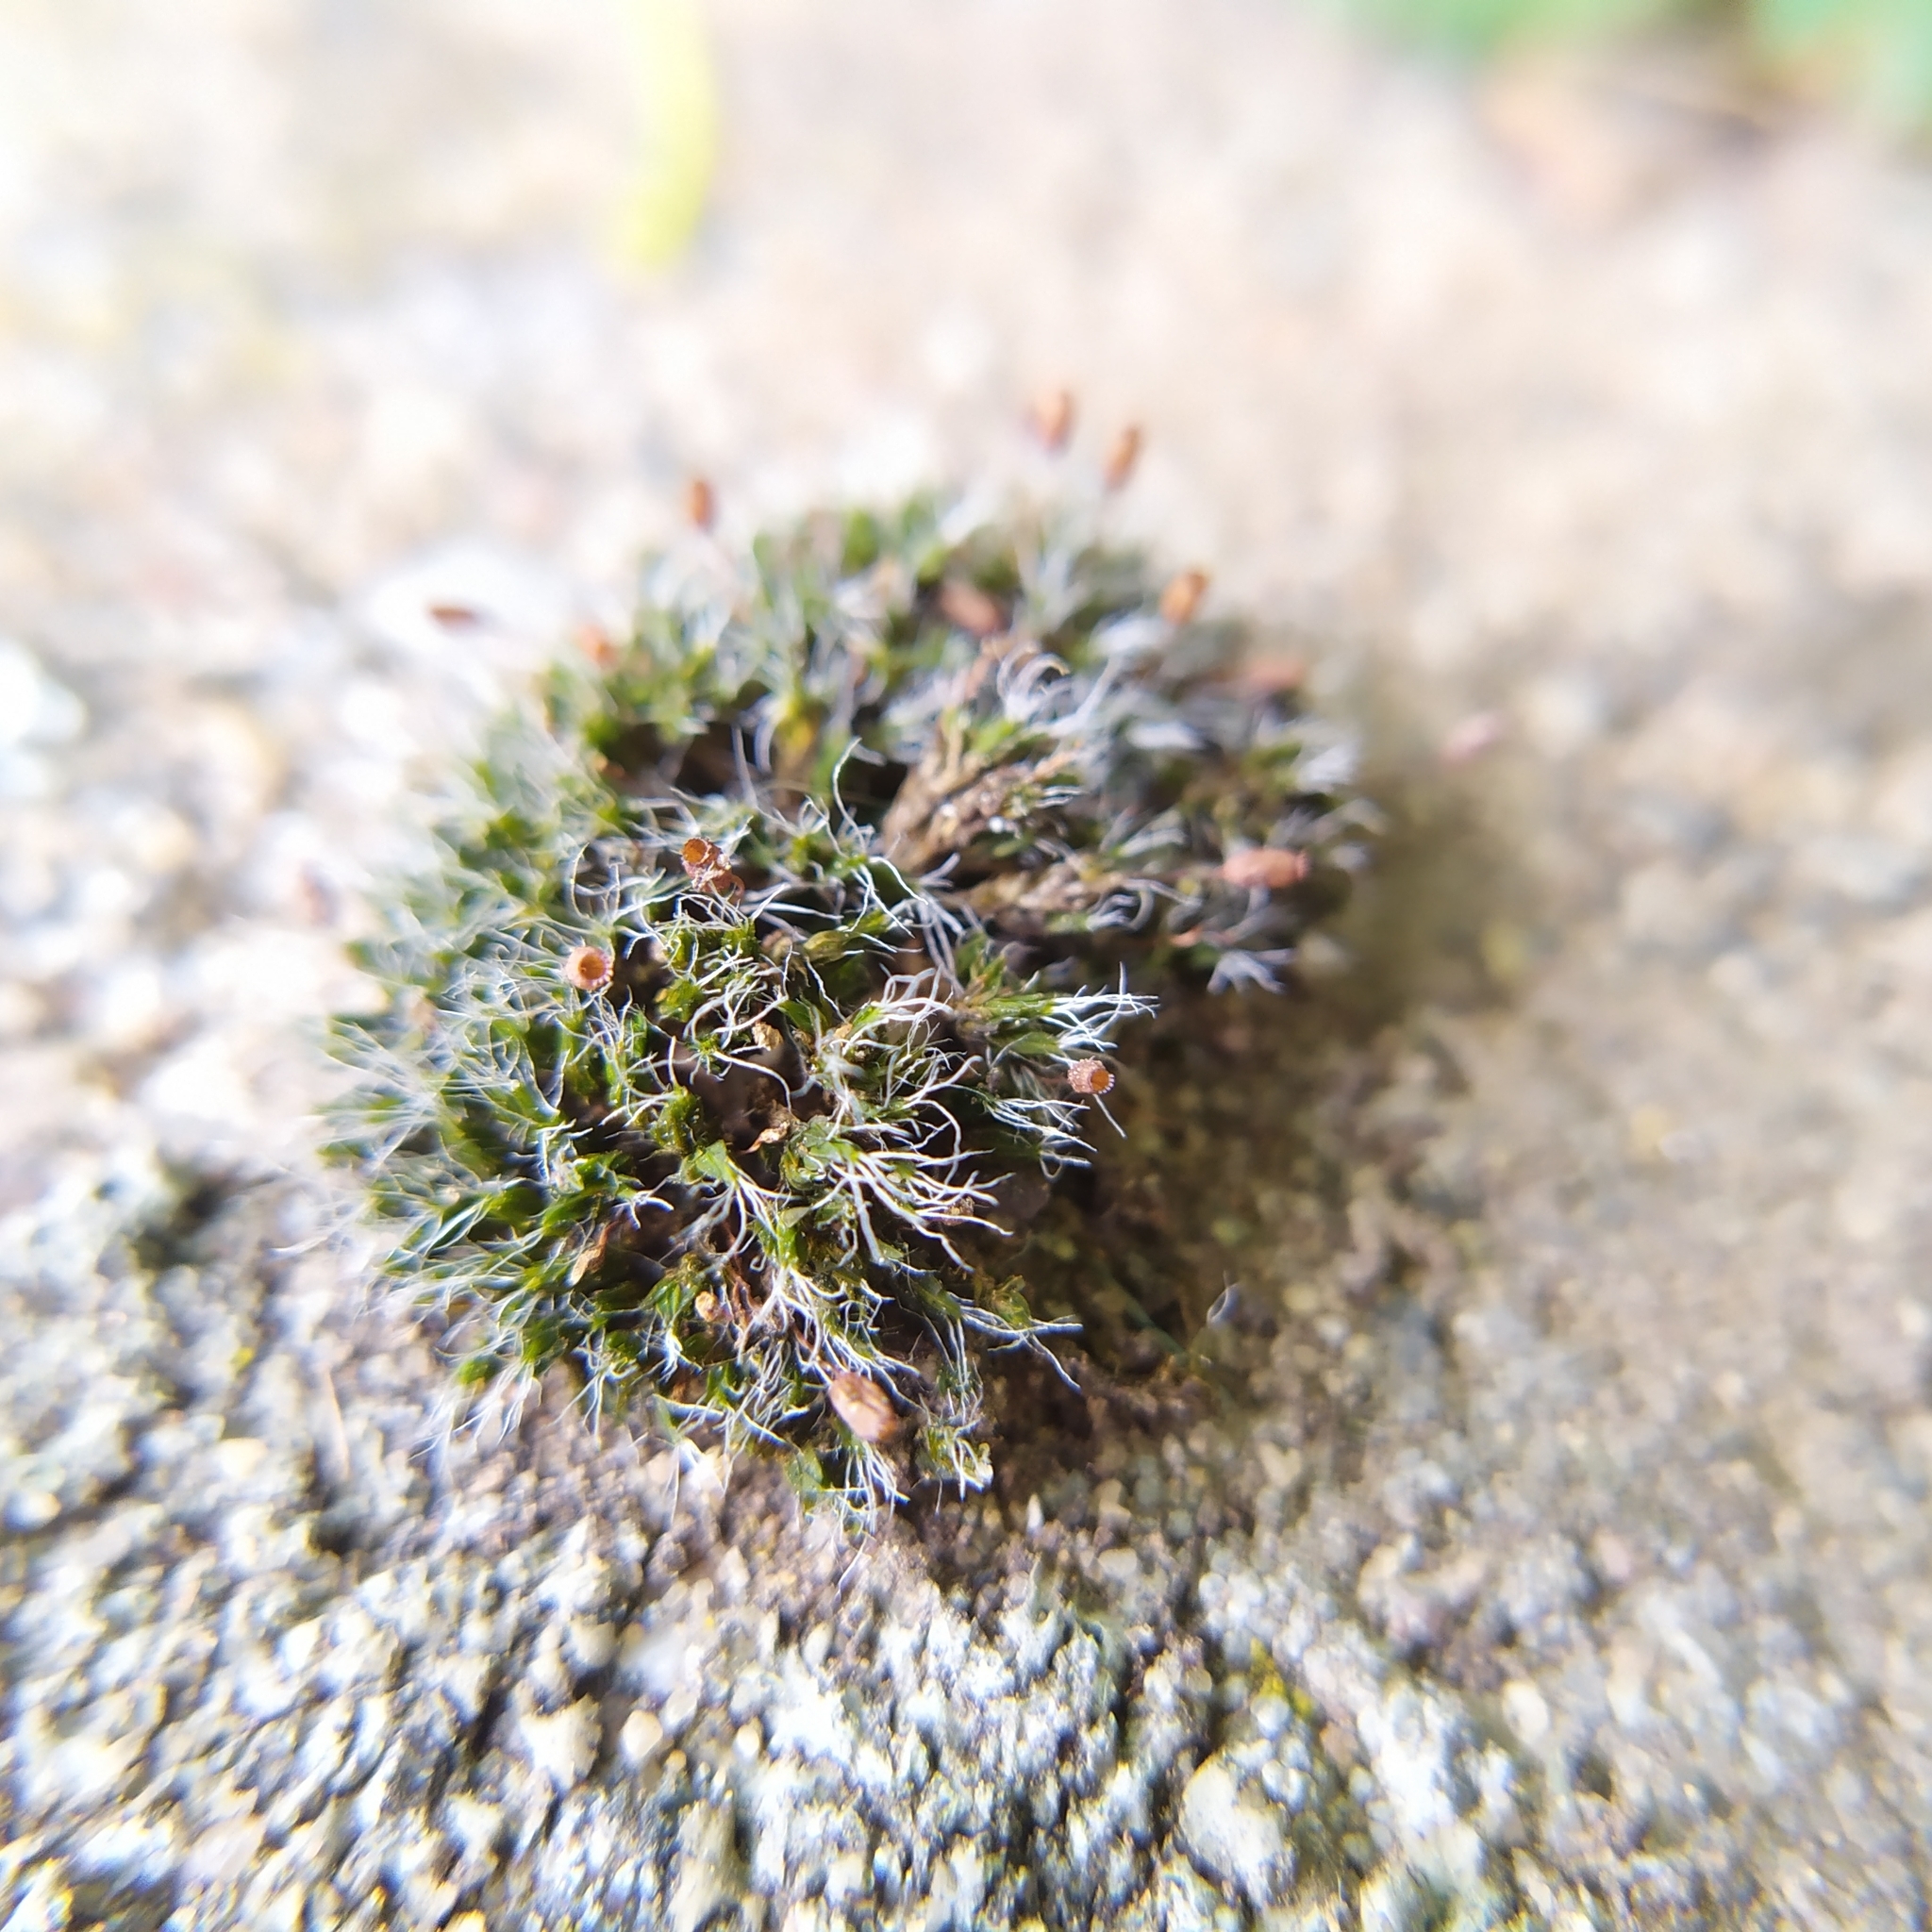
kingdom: Plantae
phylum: Bryophyta
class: Bryopsida
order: Grimmiales
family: Grimmiaceae
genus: Grimmia
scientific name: Grimmia pulvinata
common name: Grey-cushioned grimmia
